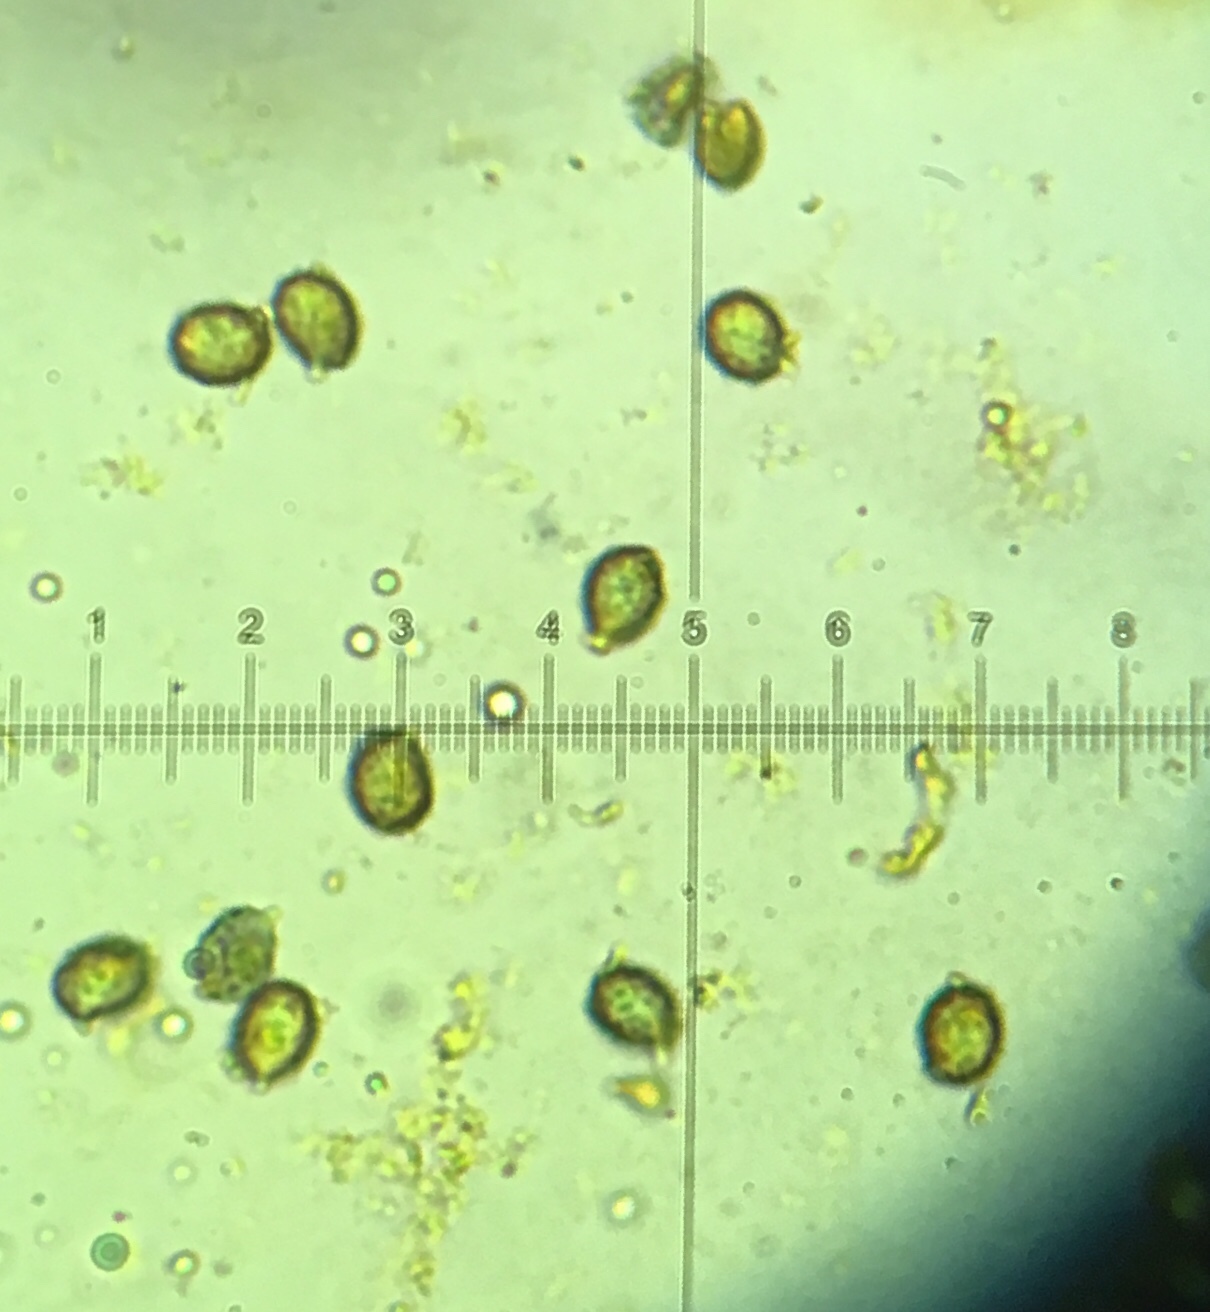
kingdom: Fungi
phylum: Basidiomycota
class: Agaricomycetes
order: Russulales
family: Russulaceae
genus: Russula
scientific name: Russula ornaticeps
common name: Purple cap russula
